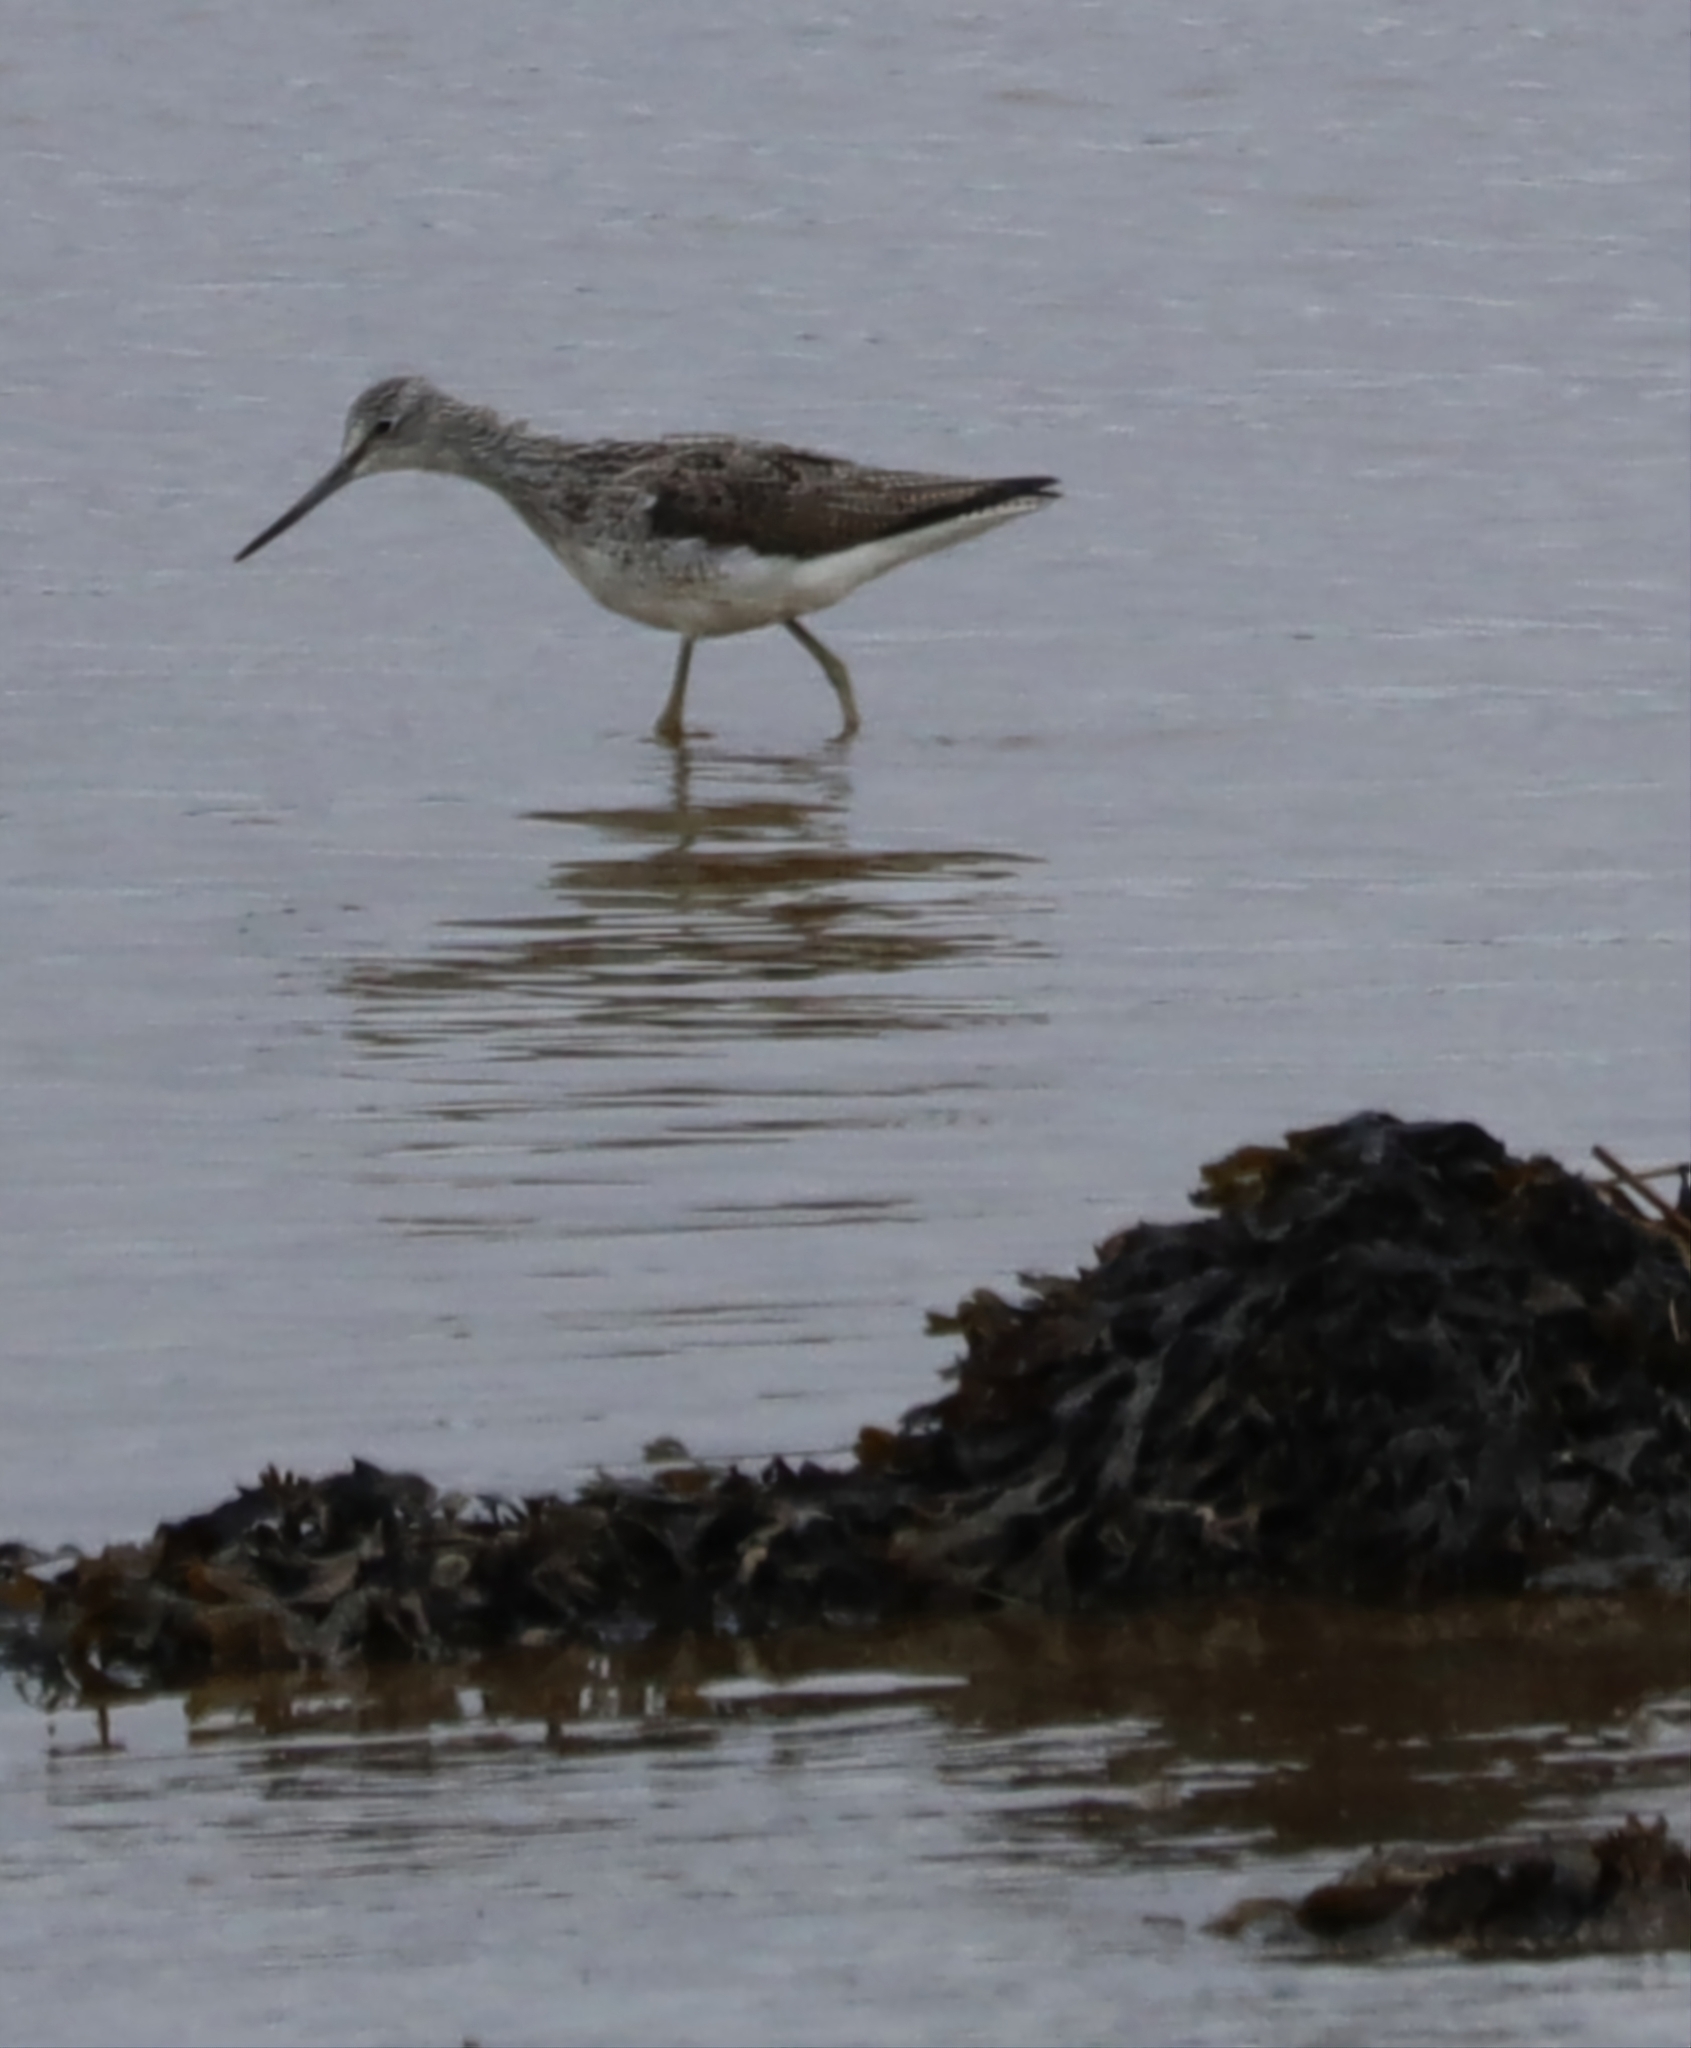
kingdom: Animalia
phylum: Chordata
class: Aves
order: Charadriiformes
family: Scolopacidae
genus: Tringa
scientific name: Tringa nebularia
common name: Common greenshank
